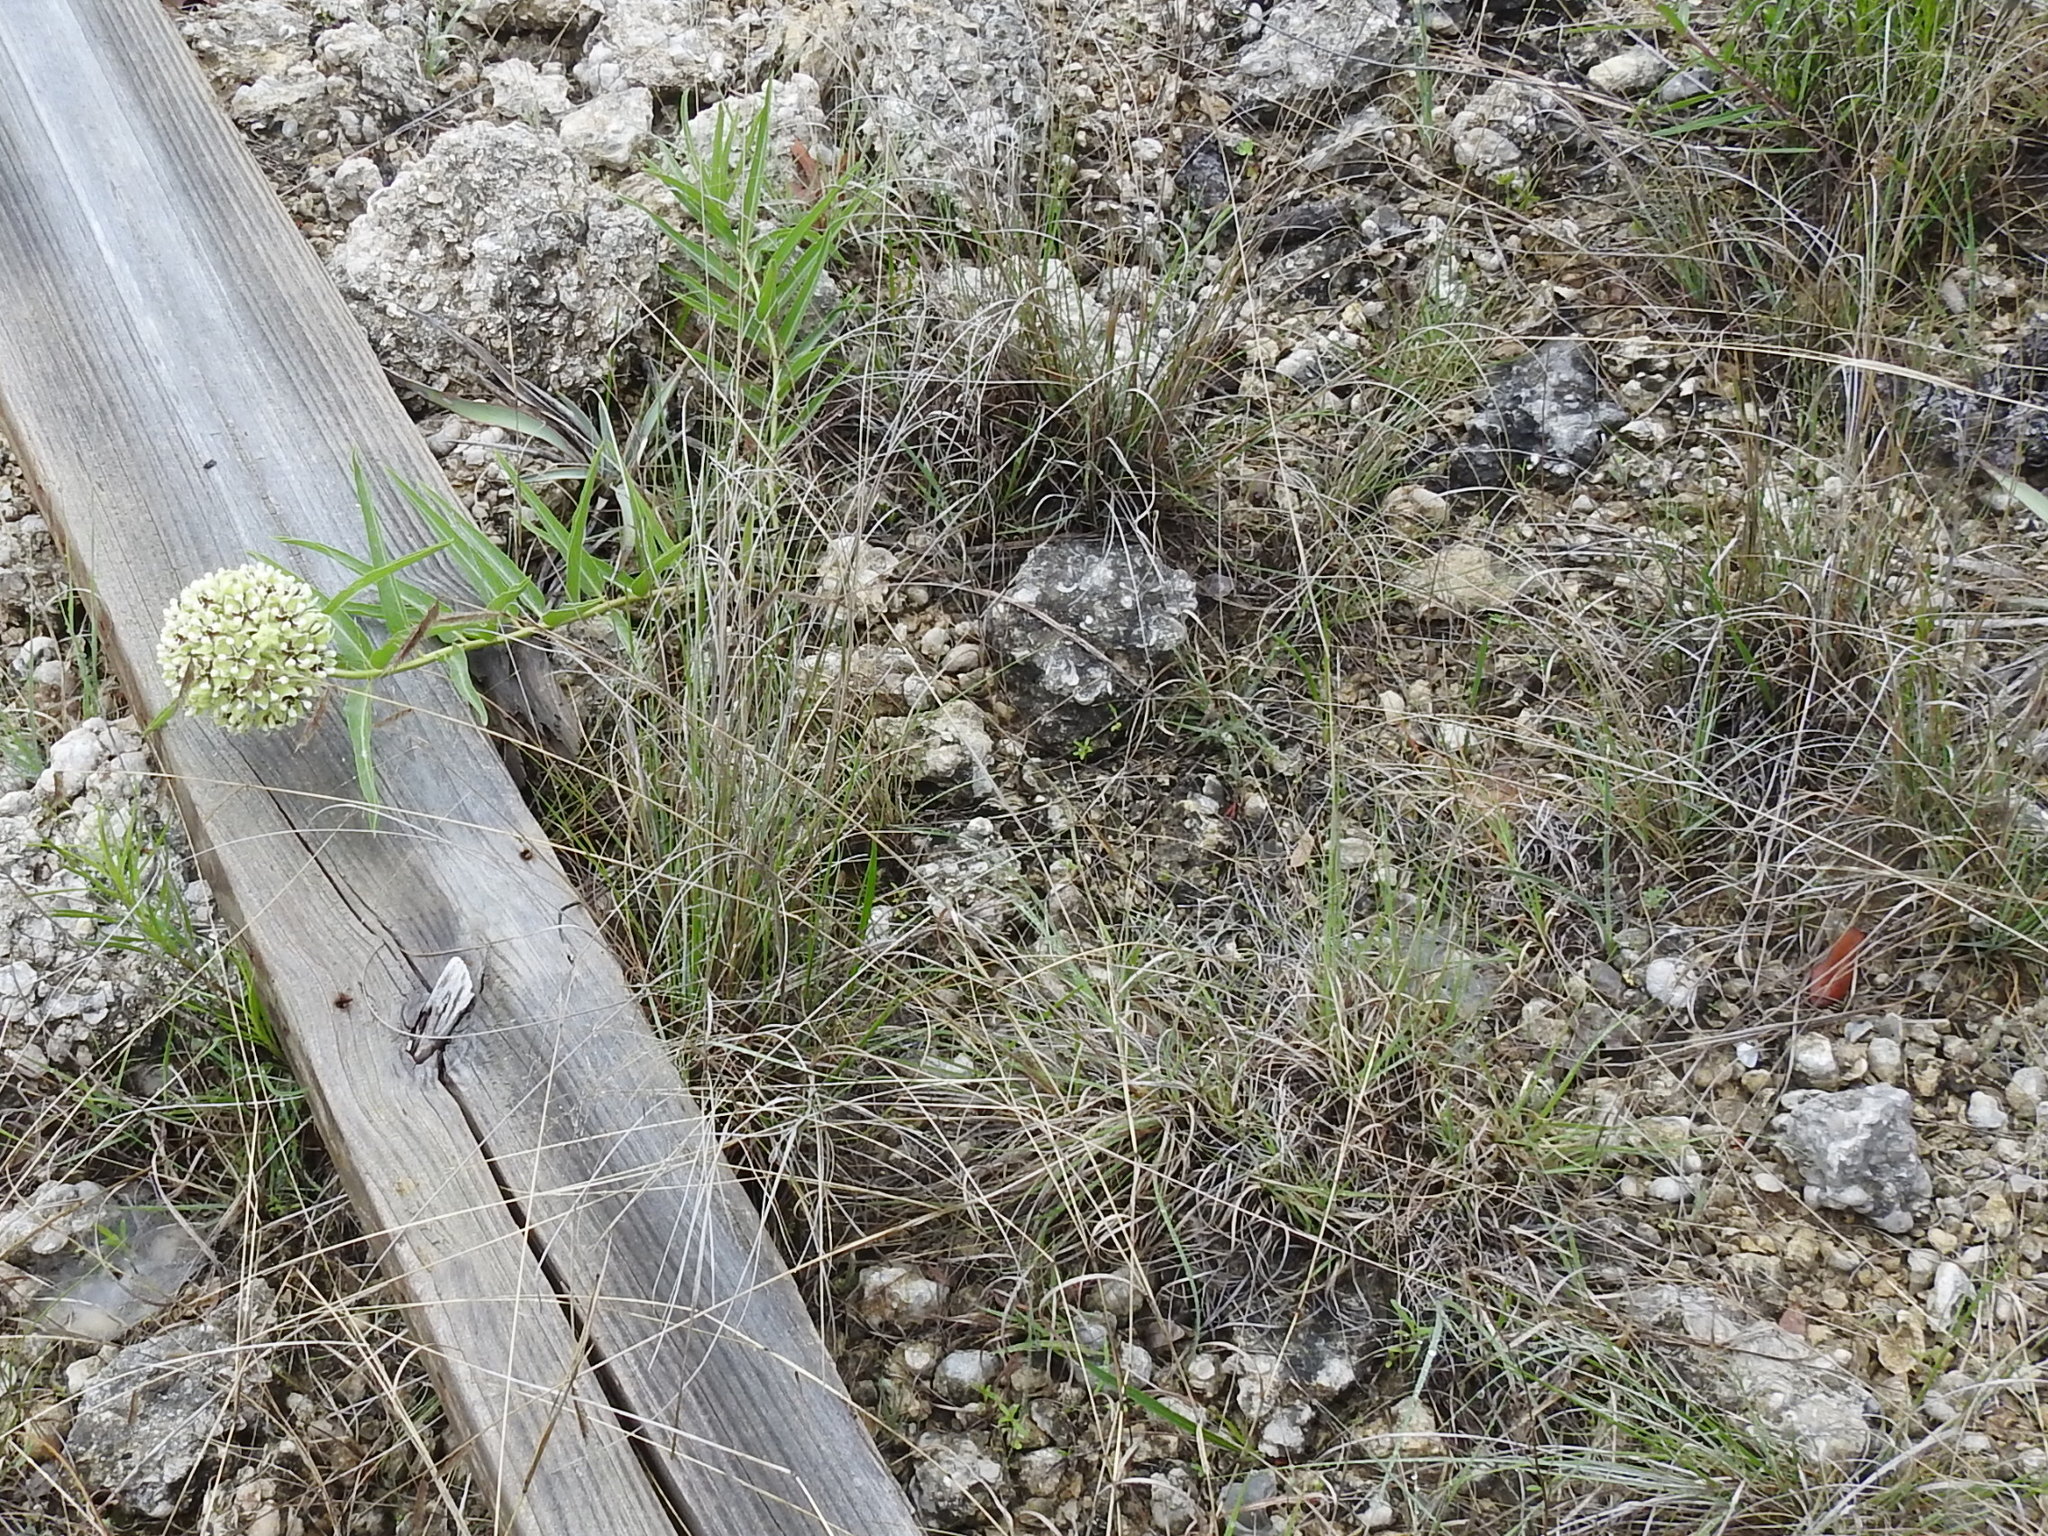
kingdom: Plantae
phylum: Tracheophyta
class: Liliopsida
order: Poales
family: Poaceae
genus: Bouteloua
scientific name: Bouteloua pectinata
